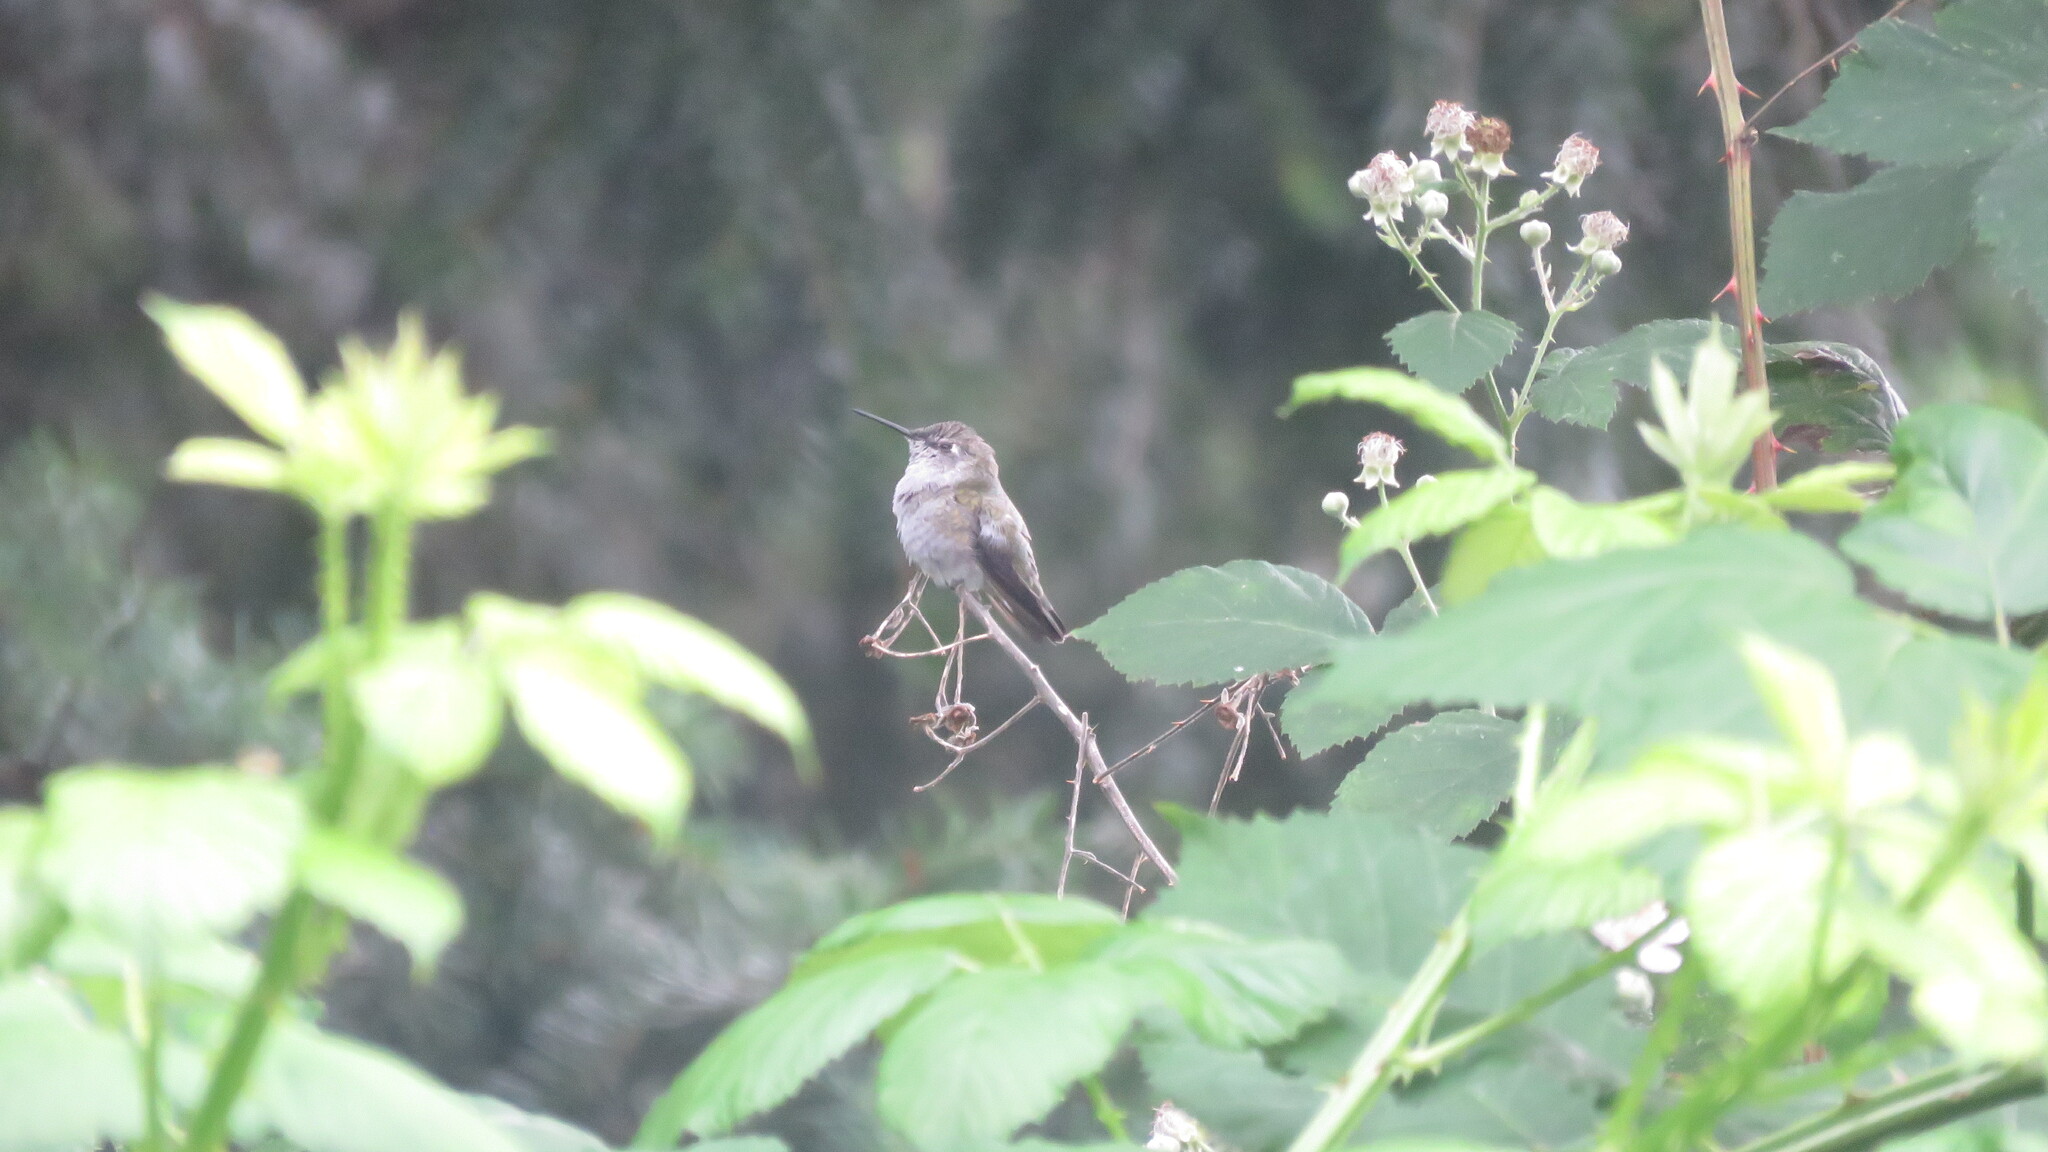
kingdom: Animalia
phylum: Chordata
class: Aves
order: Apodiformes
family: Trochilidae
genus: Calypte
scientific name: Calypte anna
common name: Anna's hummingbird
